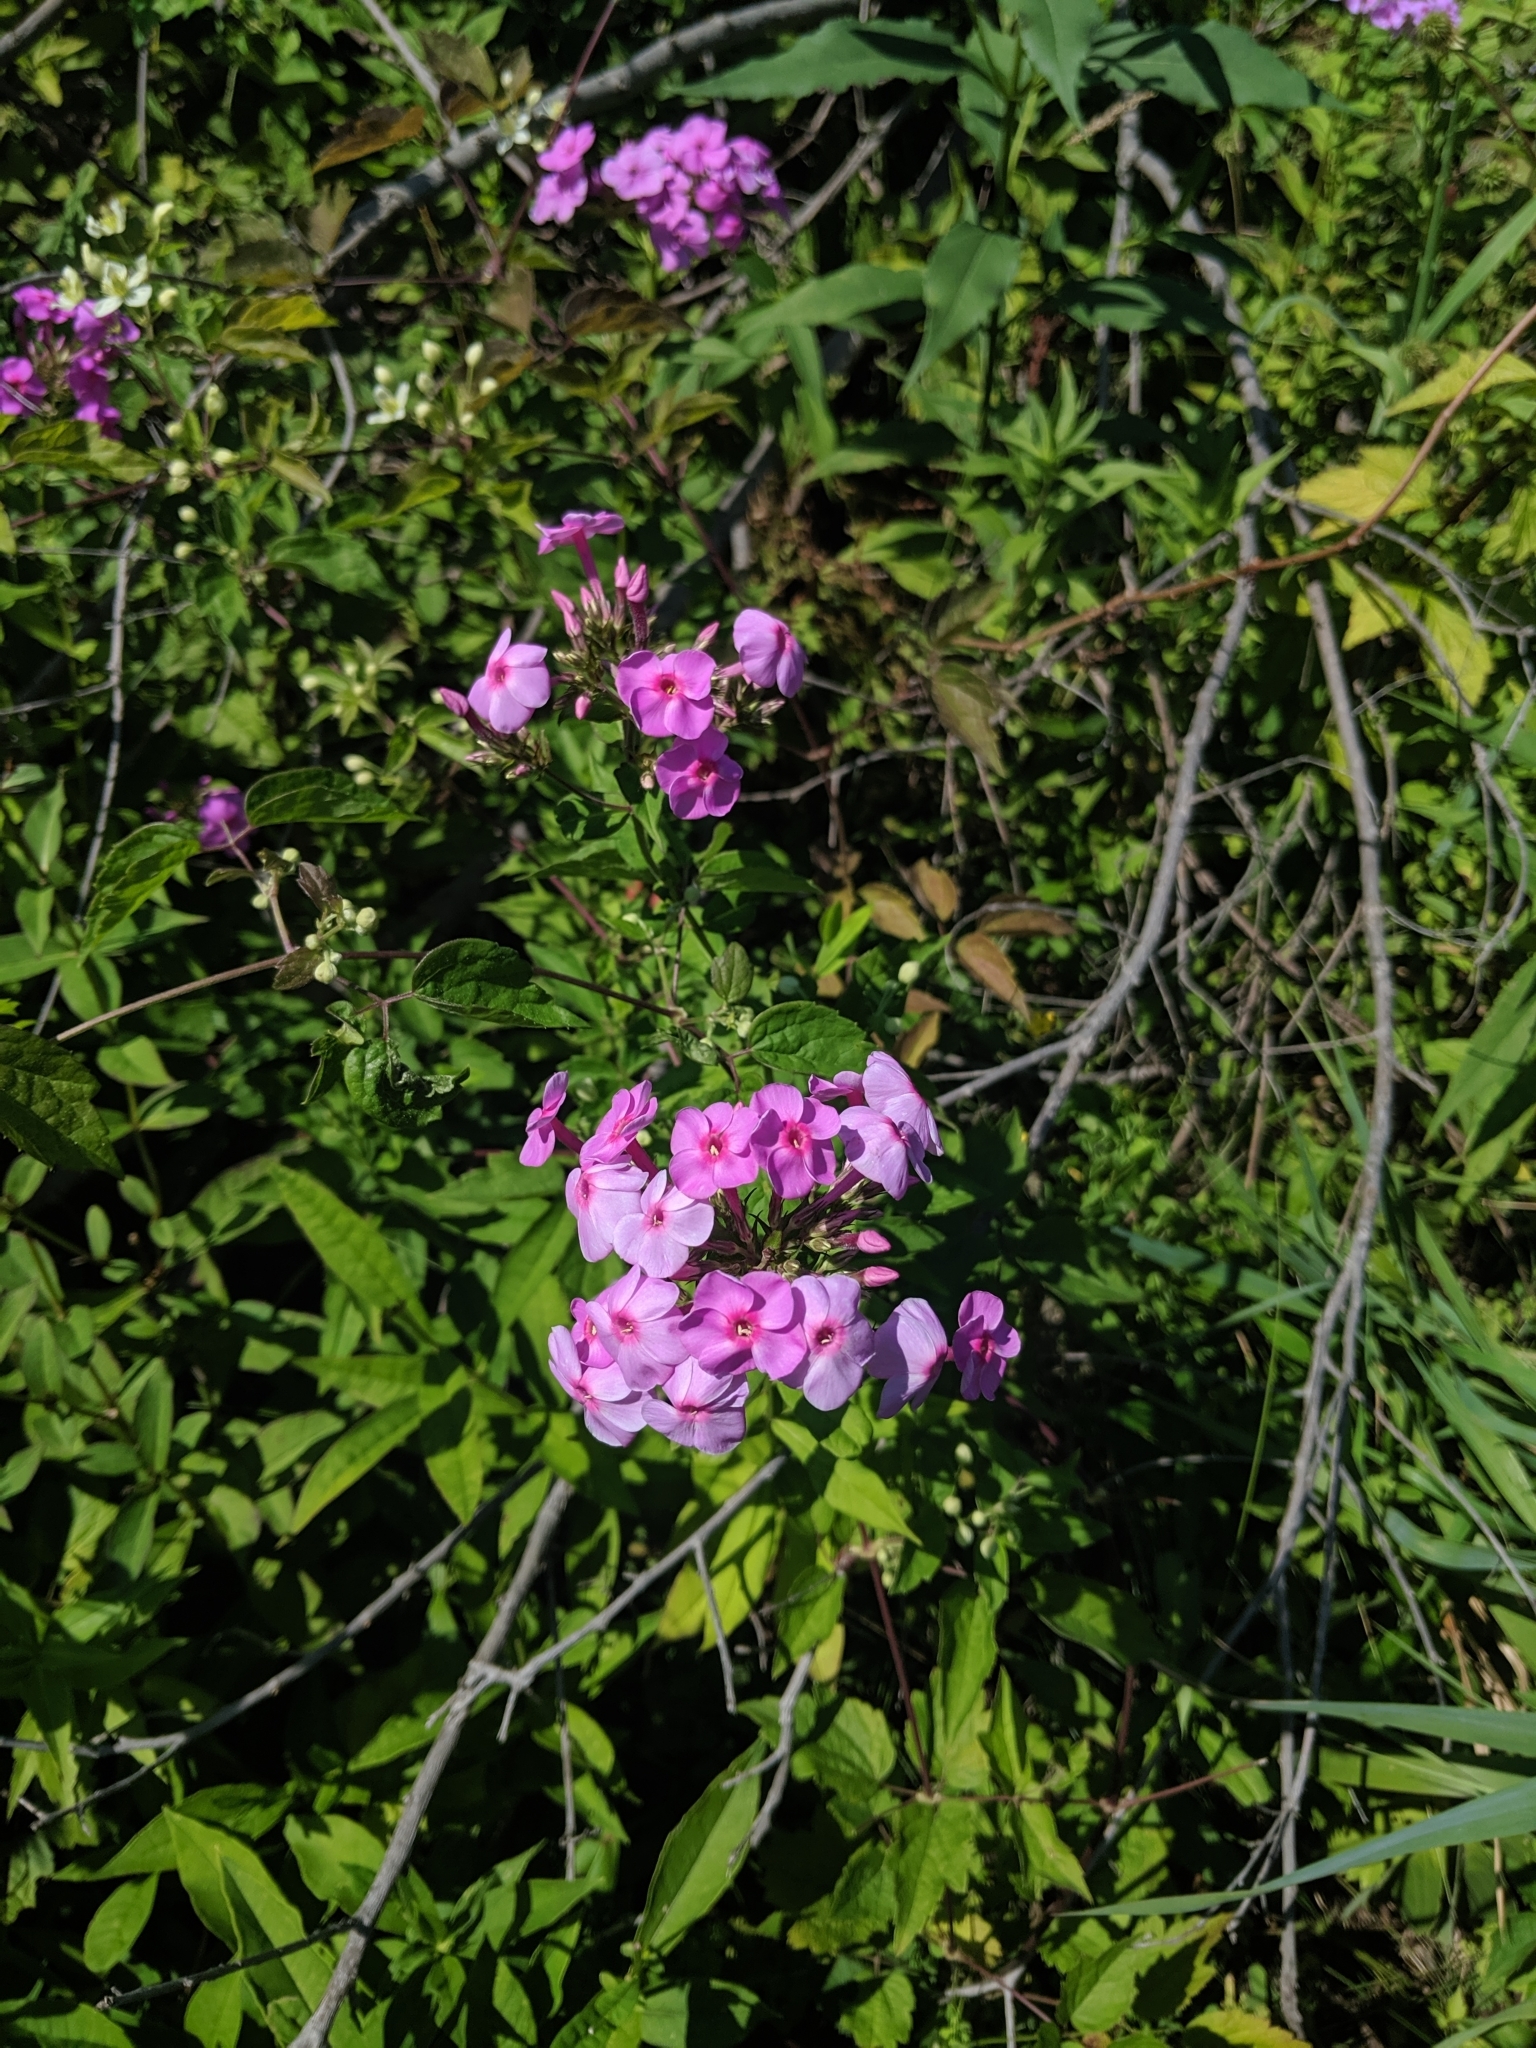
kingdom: Plantae
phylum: Tracheophyta
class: Magnoliopsida
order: Ericales
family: Polemoniaceae
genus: Phlox
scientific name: Phlox paniculata
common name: Fall phlox
